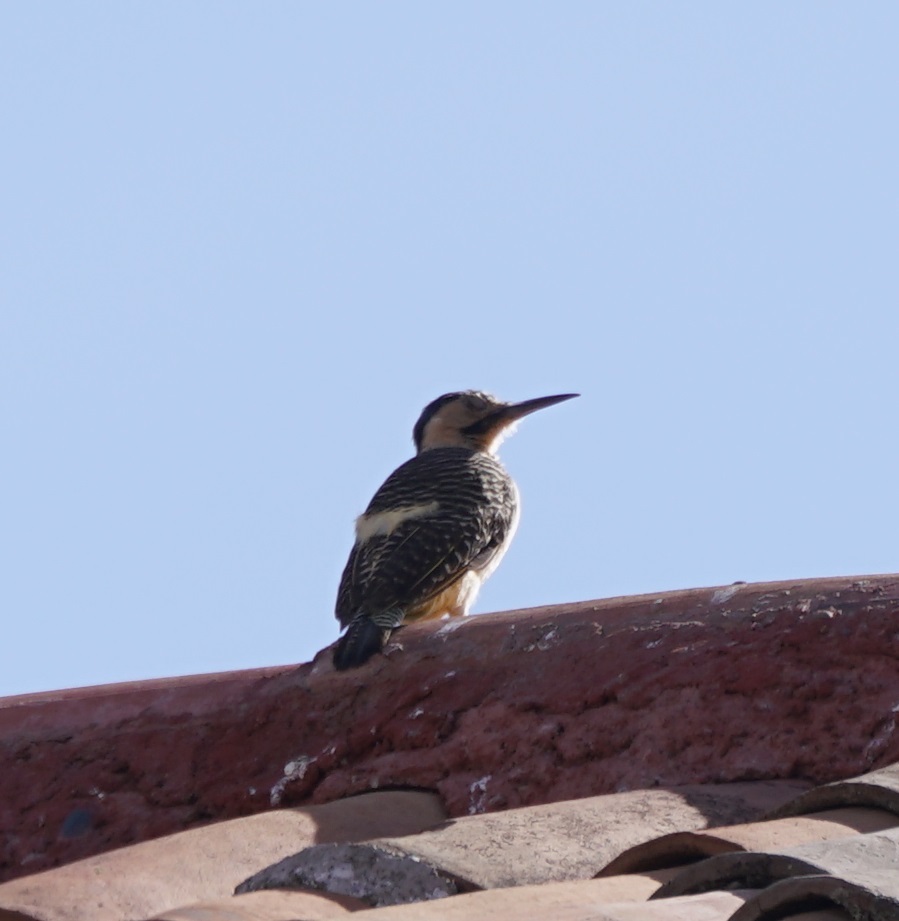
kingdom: Animalia
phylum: Chordata
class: Aves
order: Piciformes
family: Picidae
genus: Colaptes
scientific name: Colaptes rupicola
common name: Andean flicker
